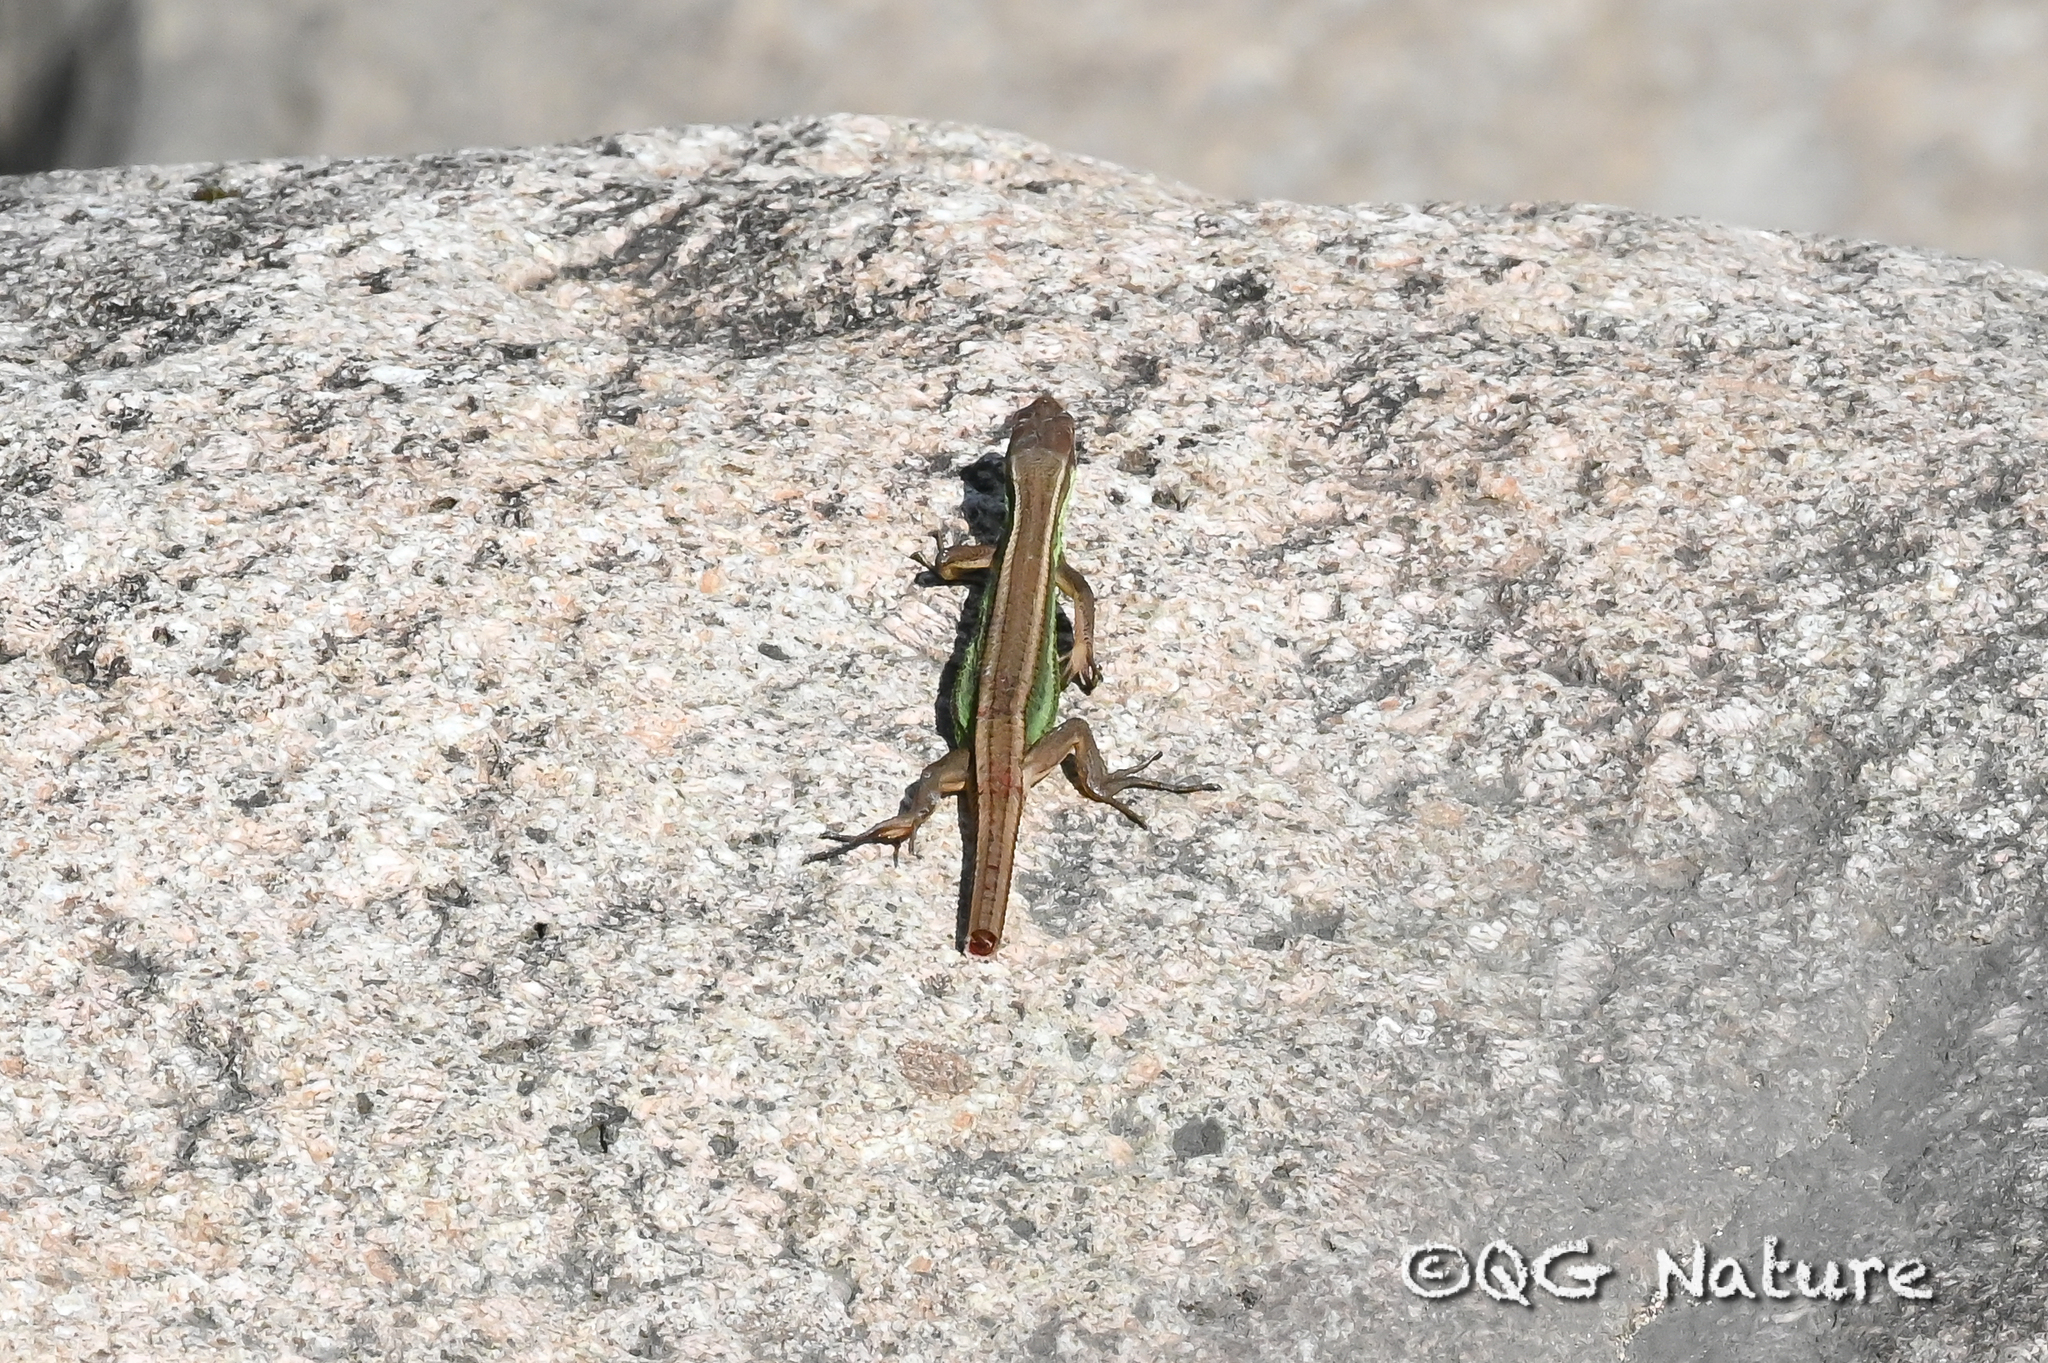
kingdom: Animalia
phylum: Chordata
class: Squamata
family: Lacertidae
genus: Takydromus
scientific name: Takydromus septentrionalis
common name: China grass lizard
